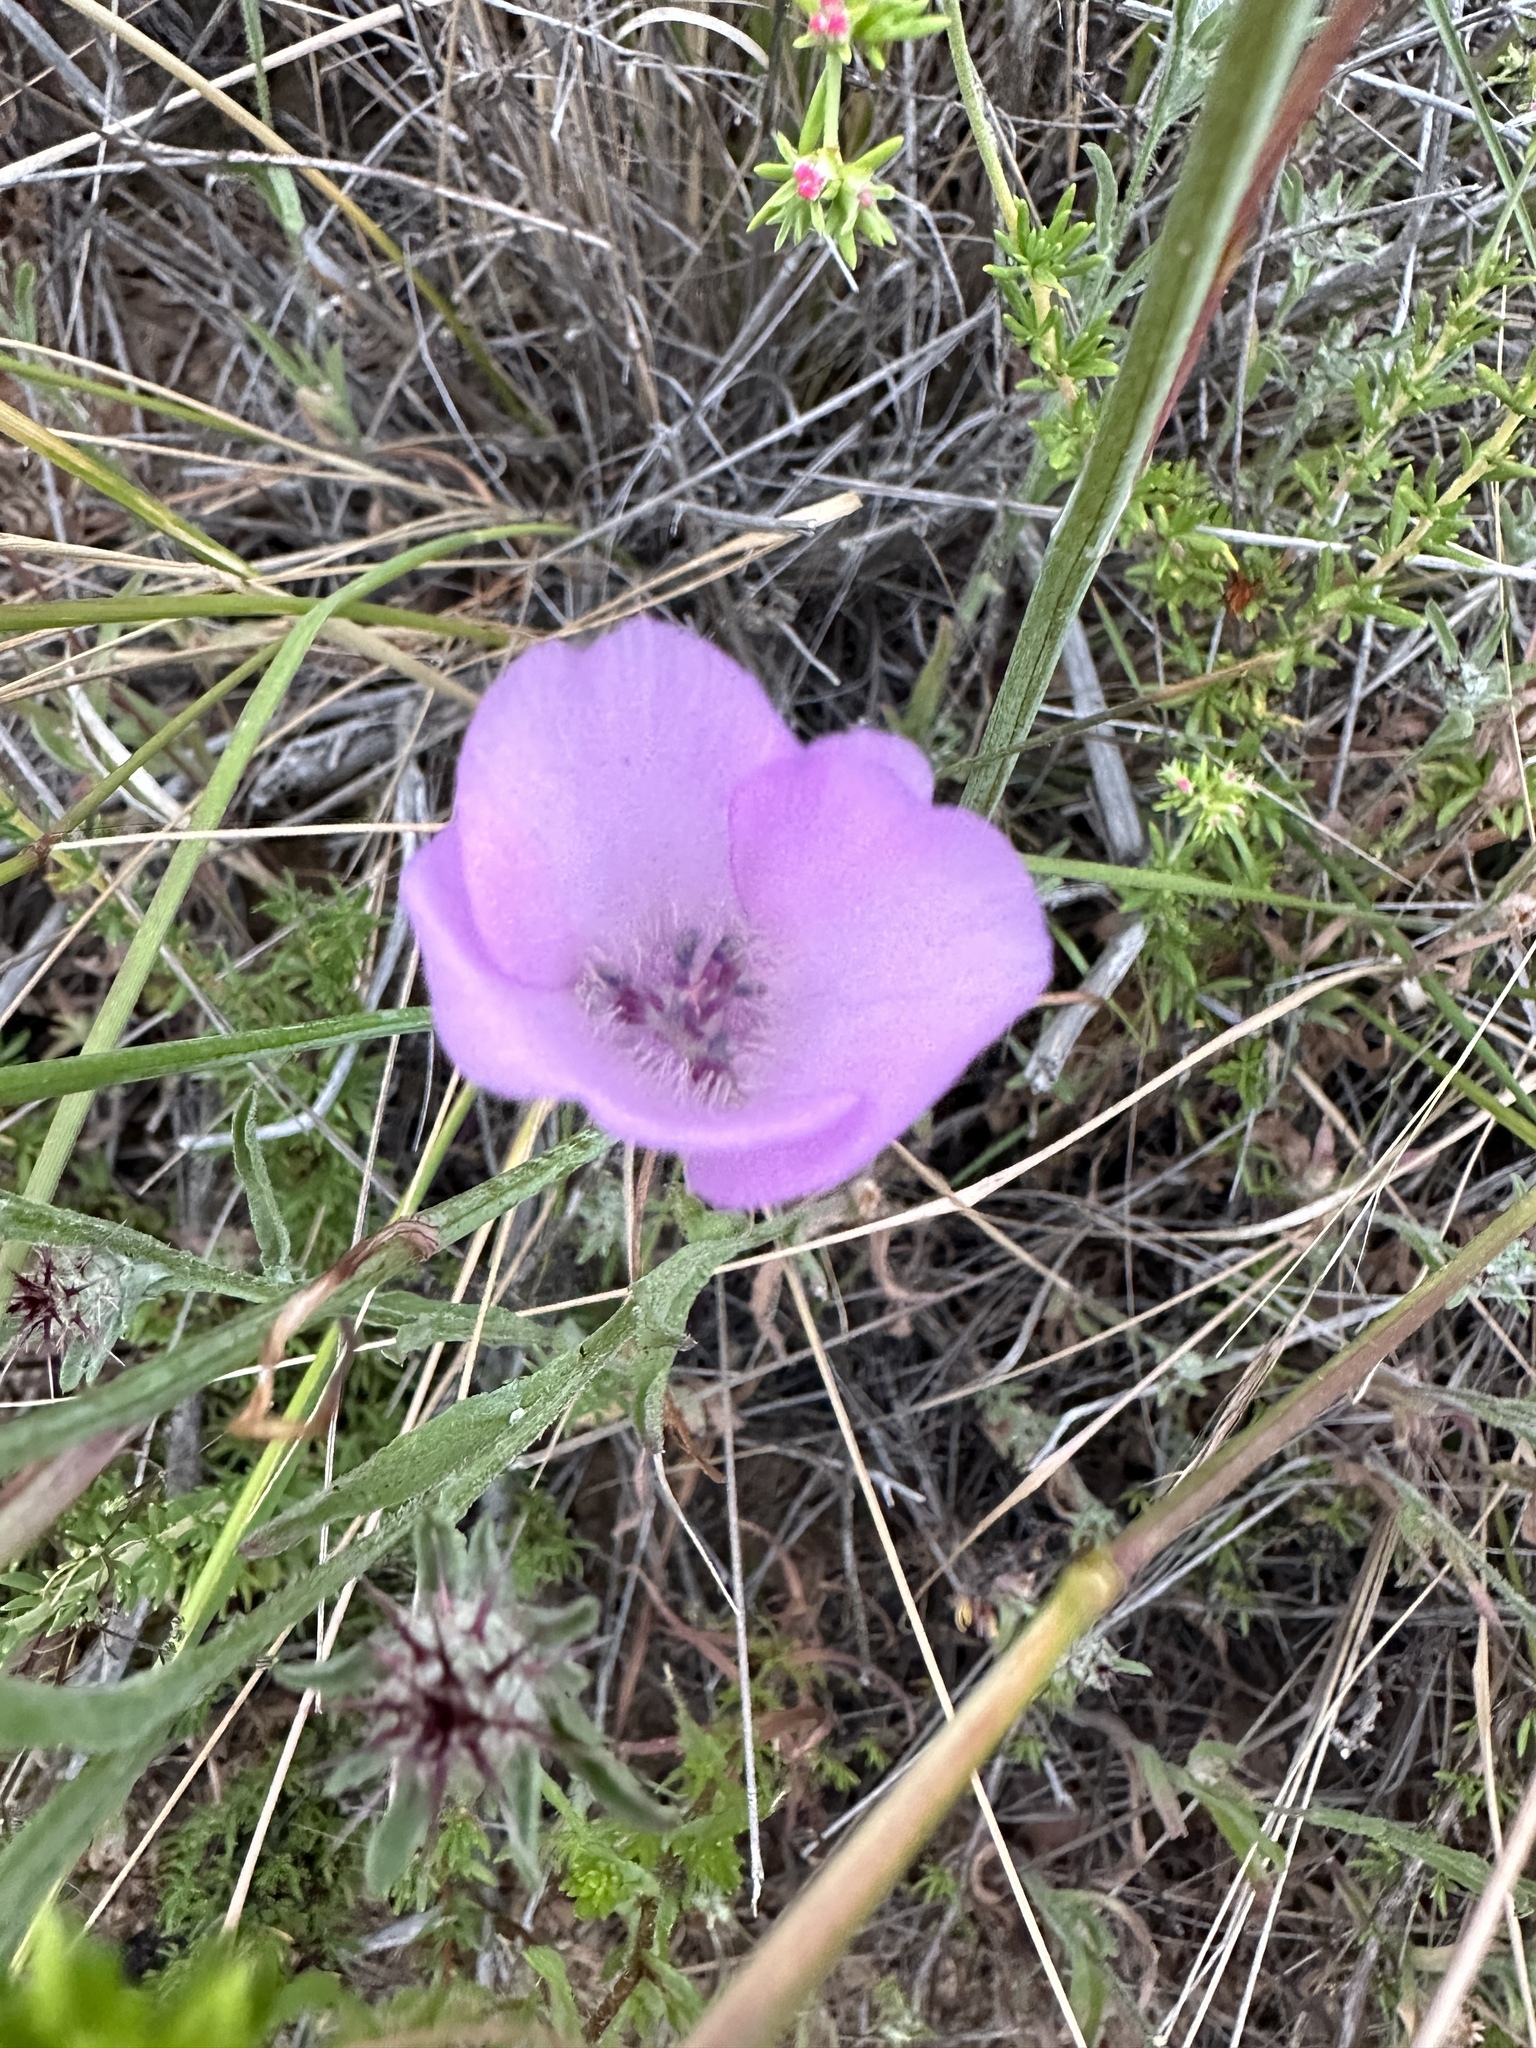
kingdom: Plantae
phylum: Tracheophyta
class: Liliopsida
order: Liliales
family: Liliaceae
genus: Calochortus
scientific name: Calochortus splendens
